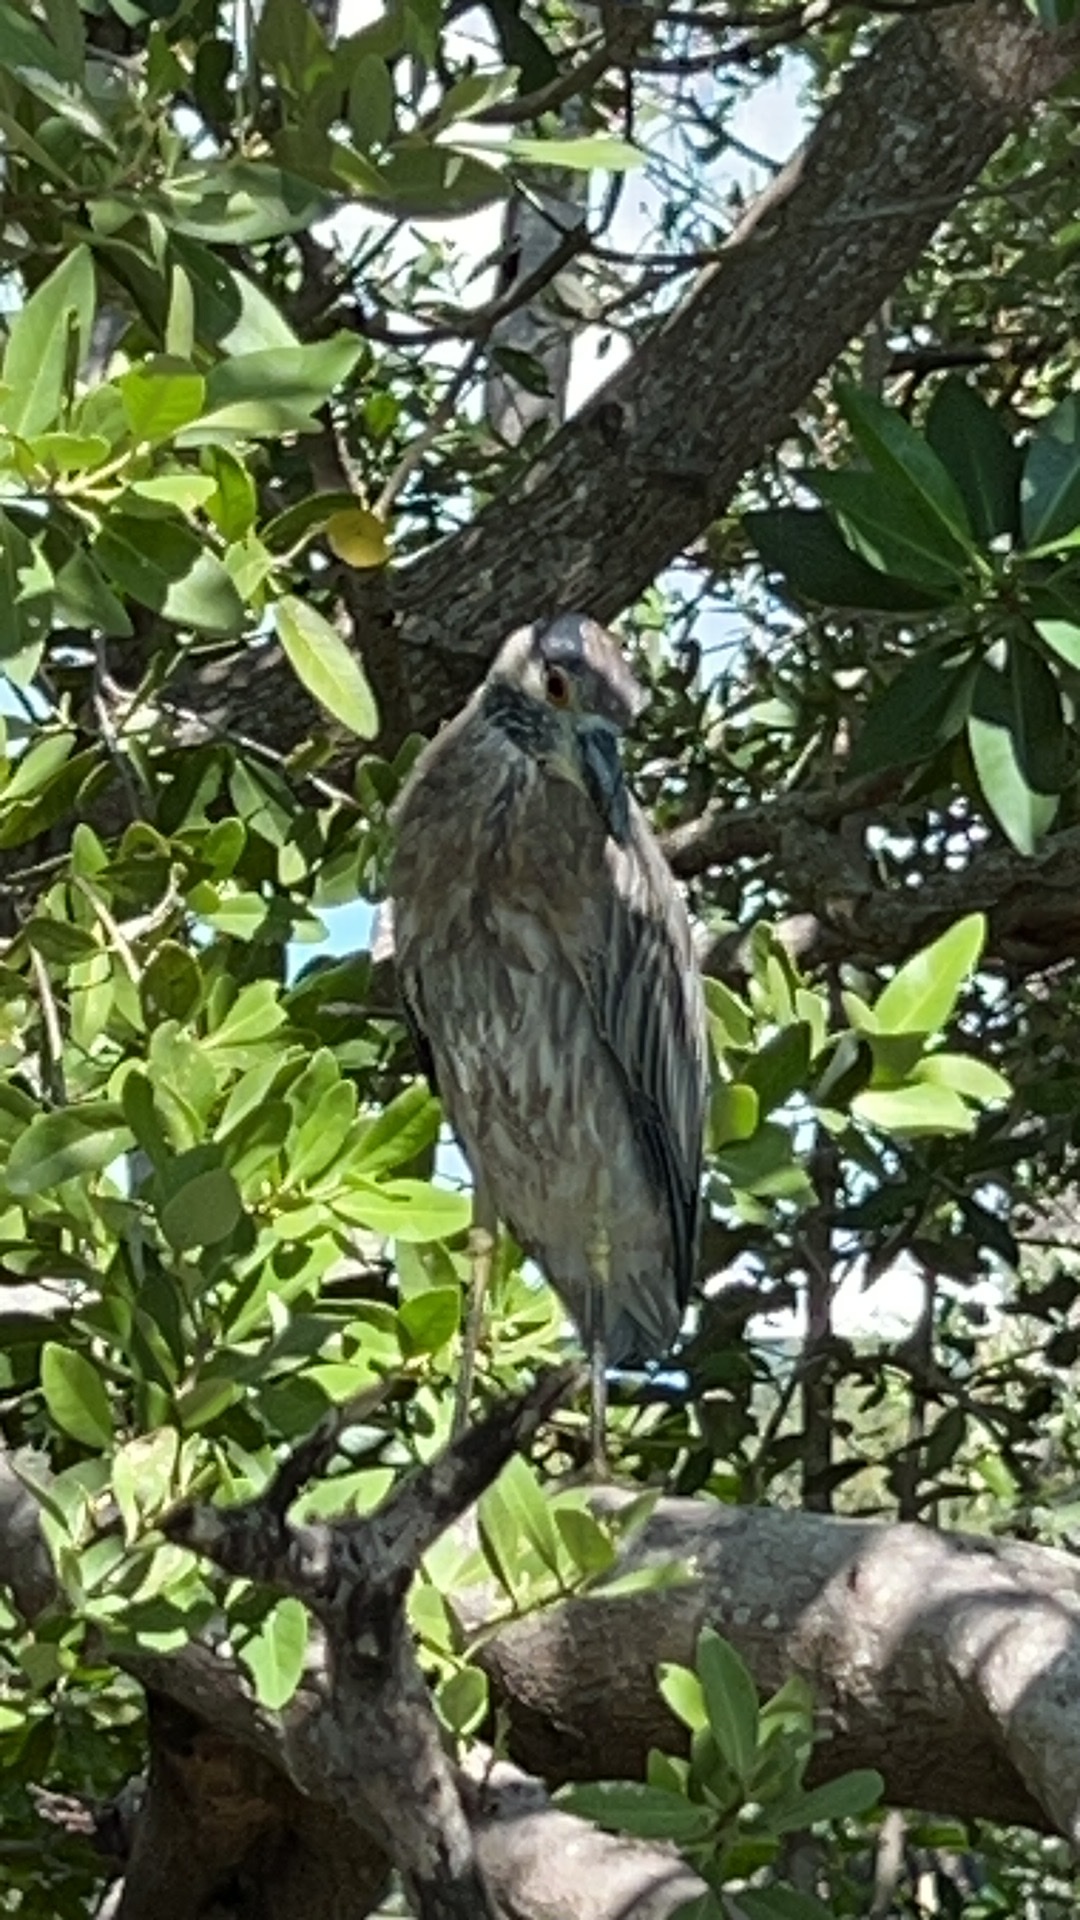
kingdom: Animalia
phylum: Chordata
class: Aves
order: Pelecaniformes
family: Ardeidae
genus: Nyctanassa
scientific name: Nyctanassa violacea
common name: Yellow-crowned night heron
